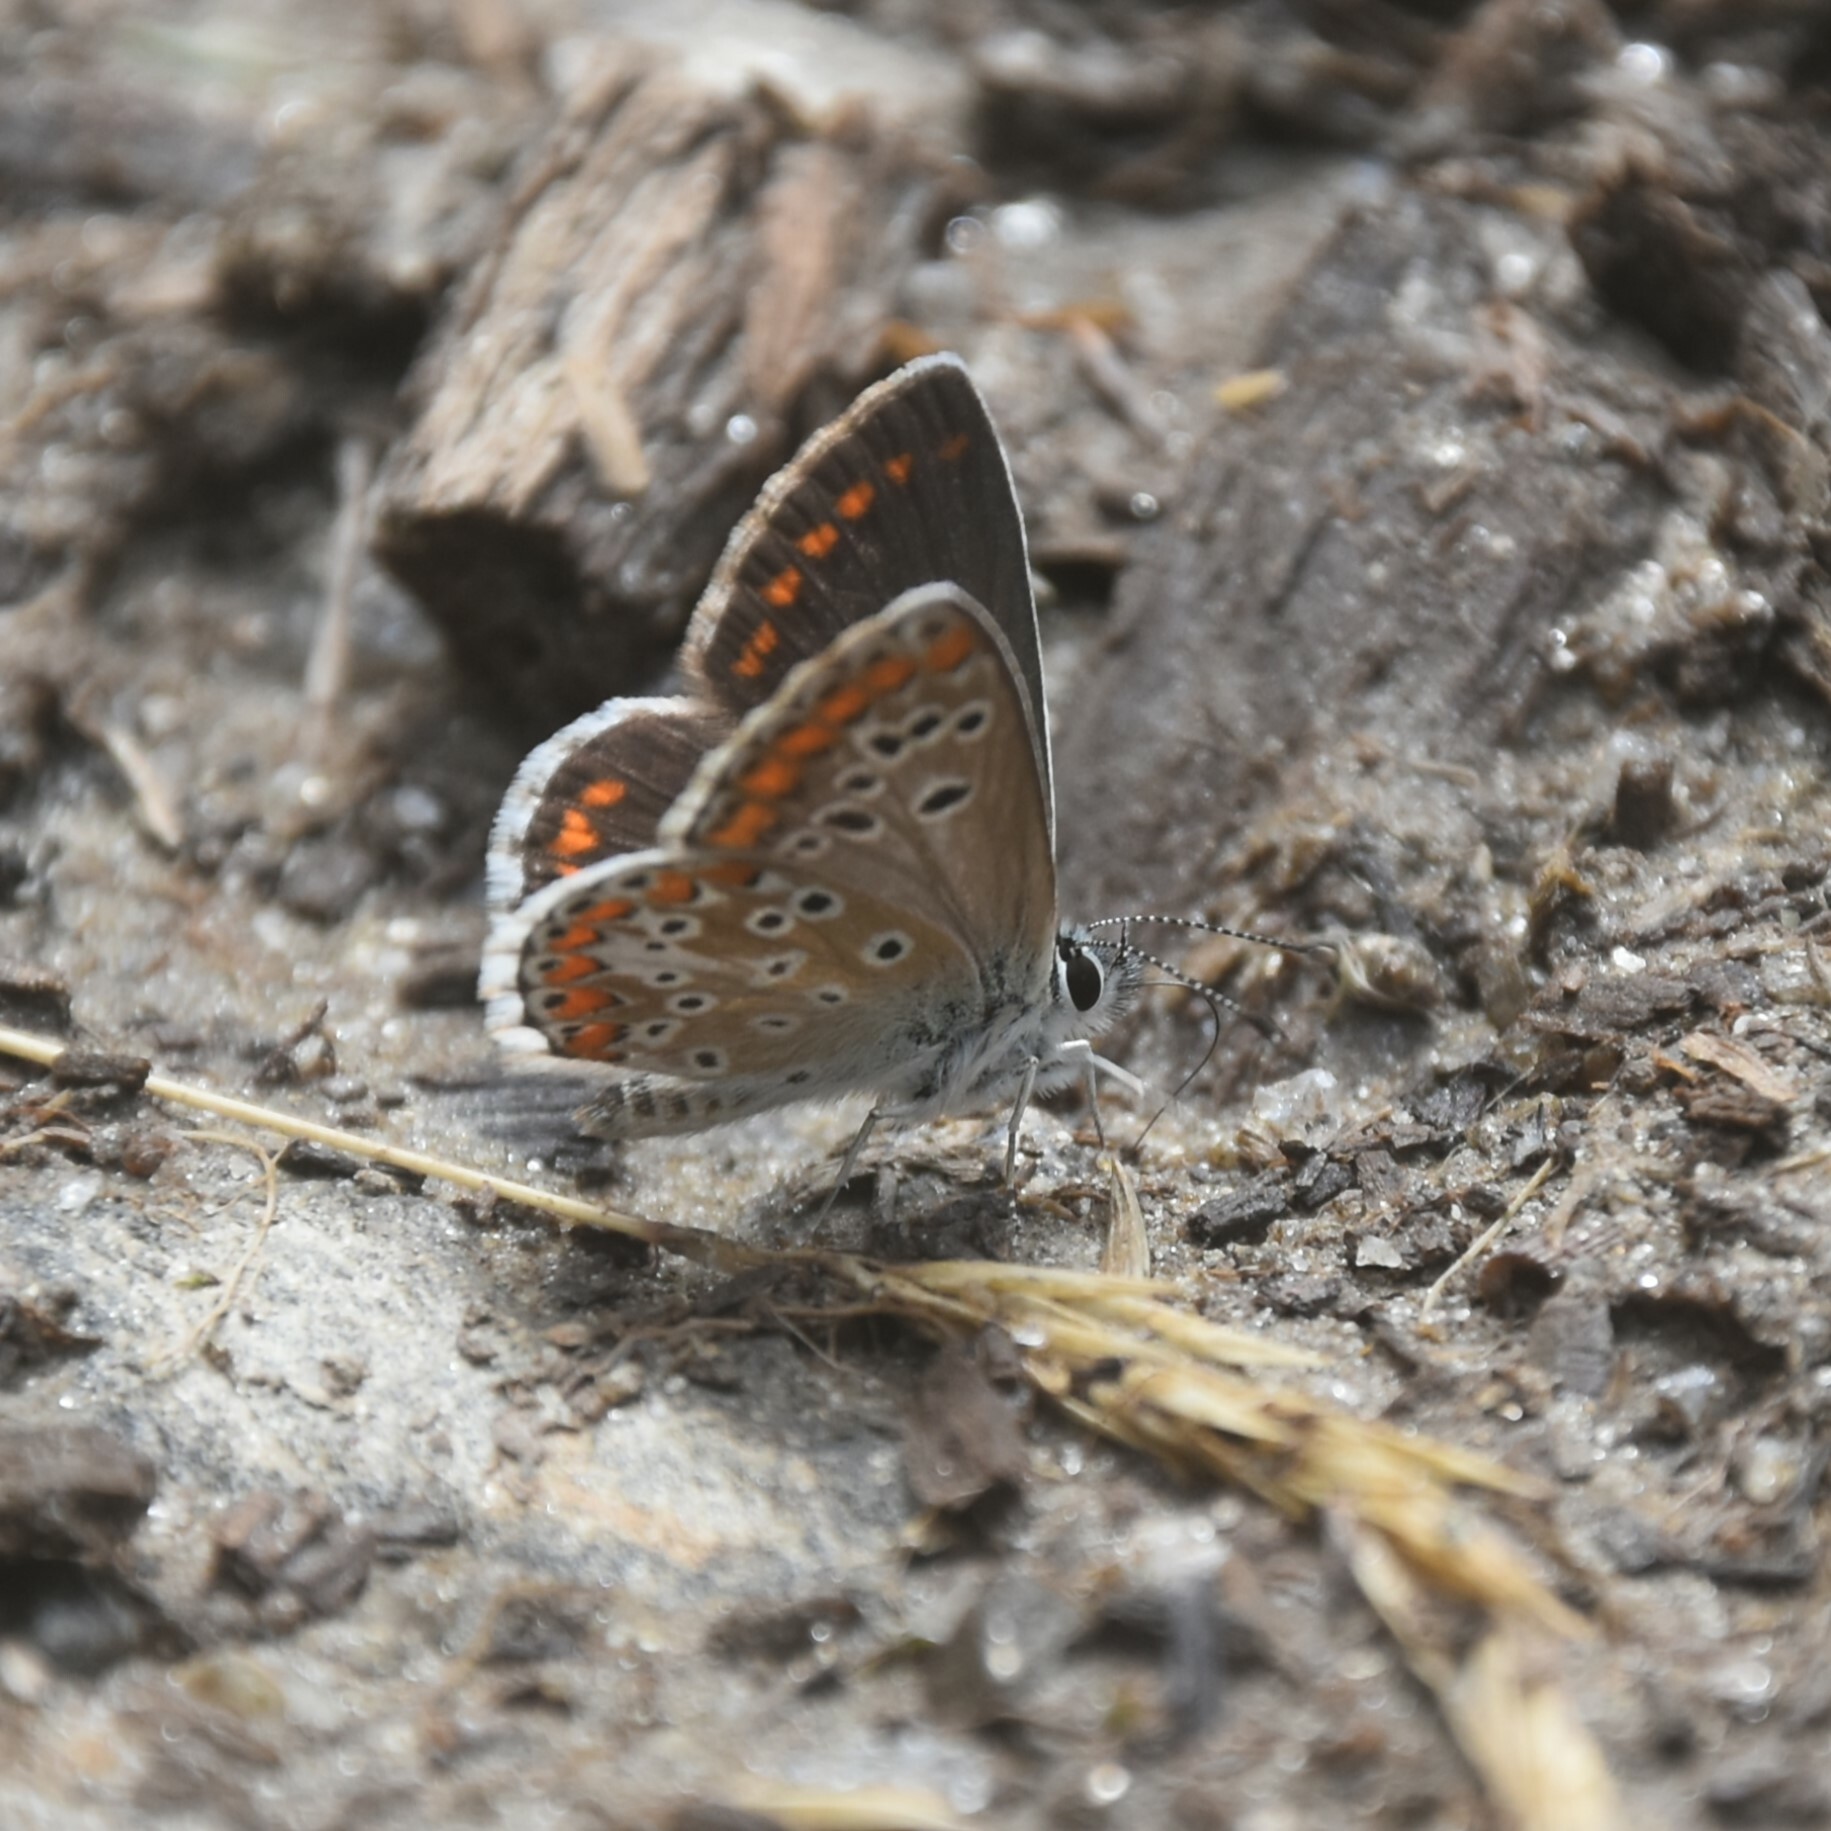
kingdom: Animalia
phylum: Arthropoda
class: Insecta
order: Lepidoptera
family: Lycaenidae
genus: Aricia
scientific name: Aricia agestis
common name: Brown argus
